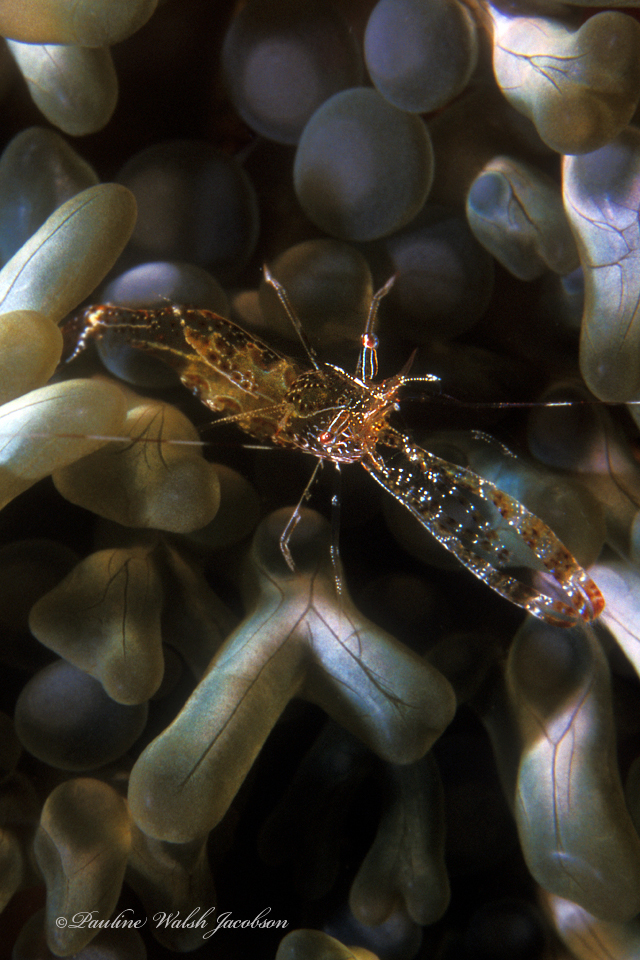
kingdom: Animalia
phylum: Arthropoda
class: Malacostraca
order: Decapoda
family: Palaemonidae
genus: Periclimenes
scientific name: Periclimenes rathbunae
